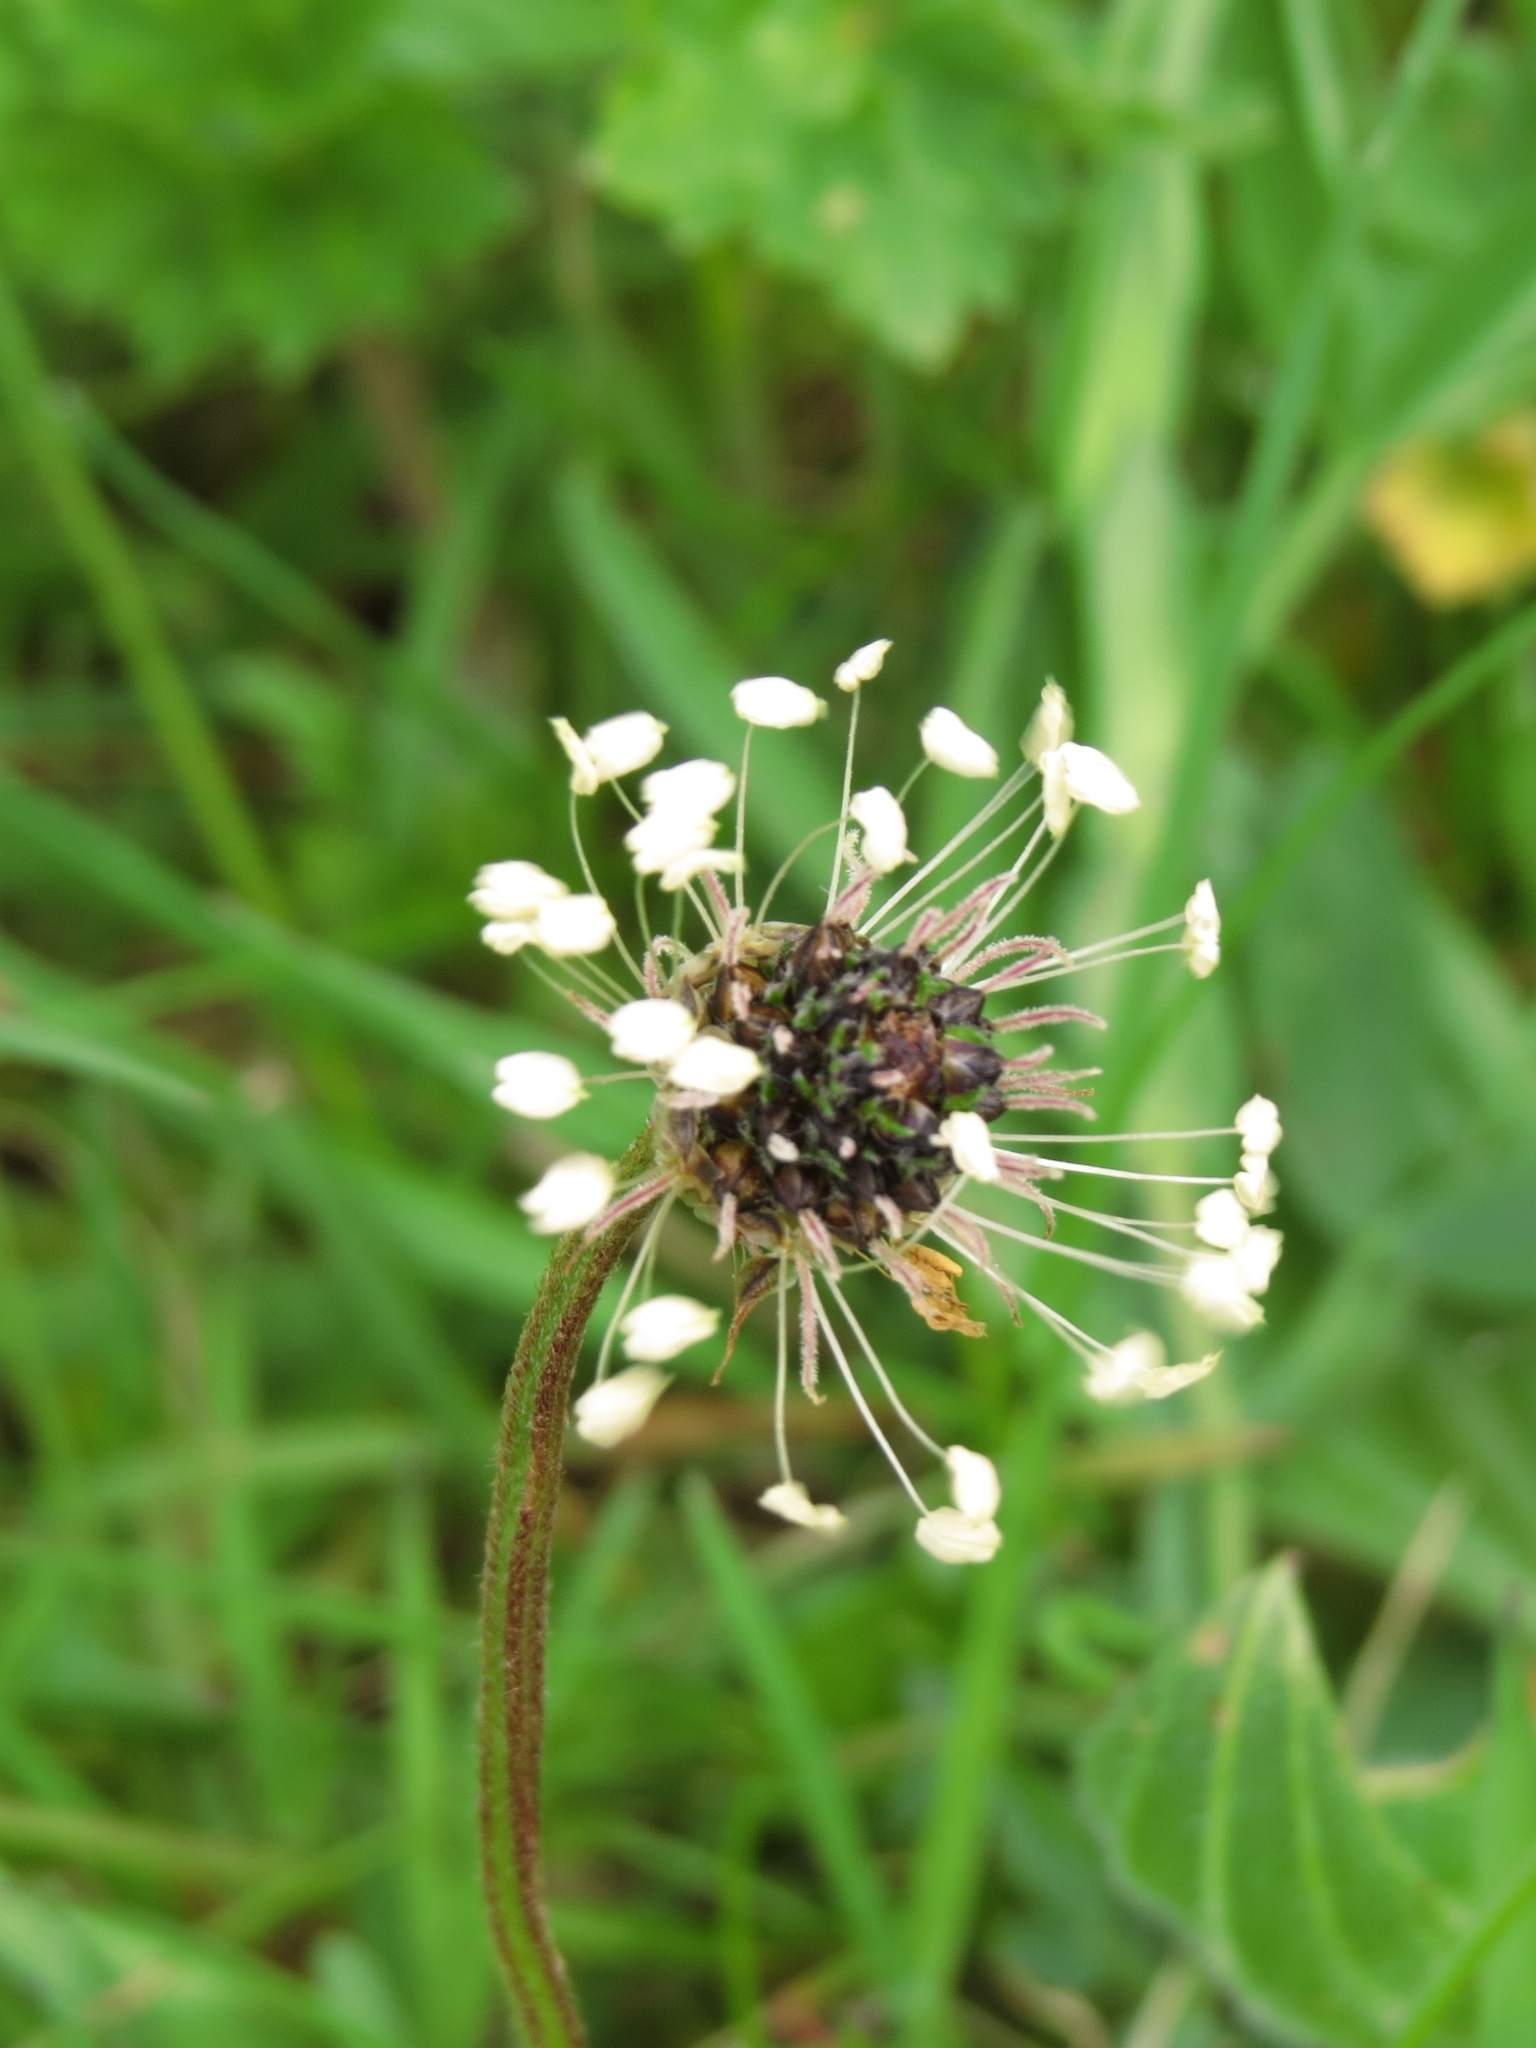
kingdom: Plantae
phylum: Tracheophyta
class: Magnoliopsida
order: Lamiales
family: Plantaginaceae
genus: Plantago
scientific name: Plantago lanceolata
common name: Ribwort plantain
